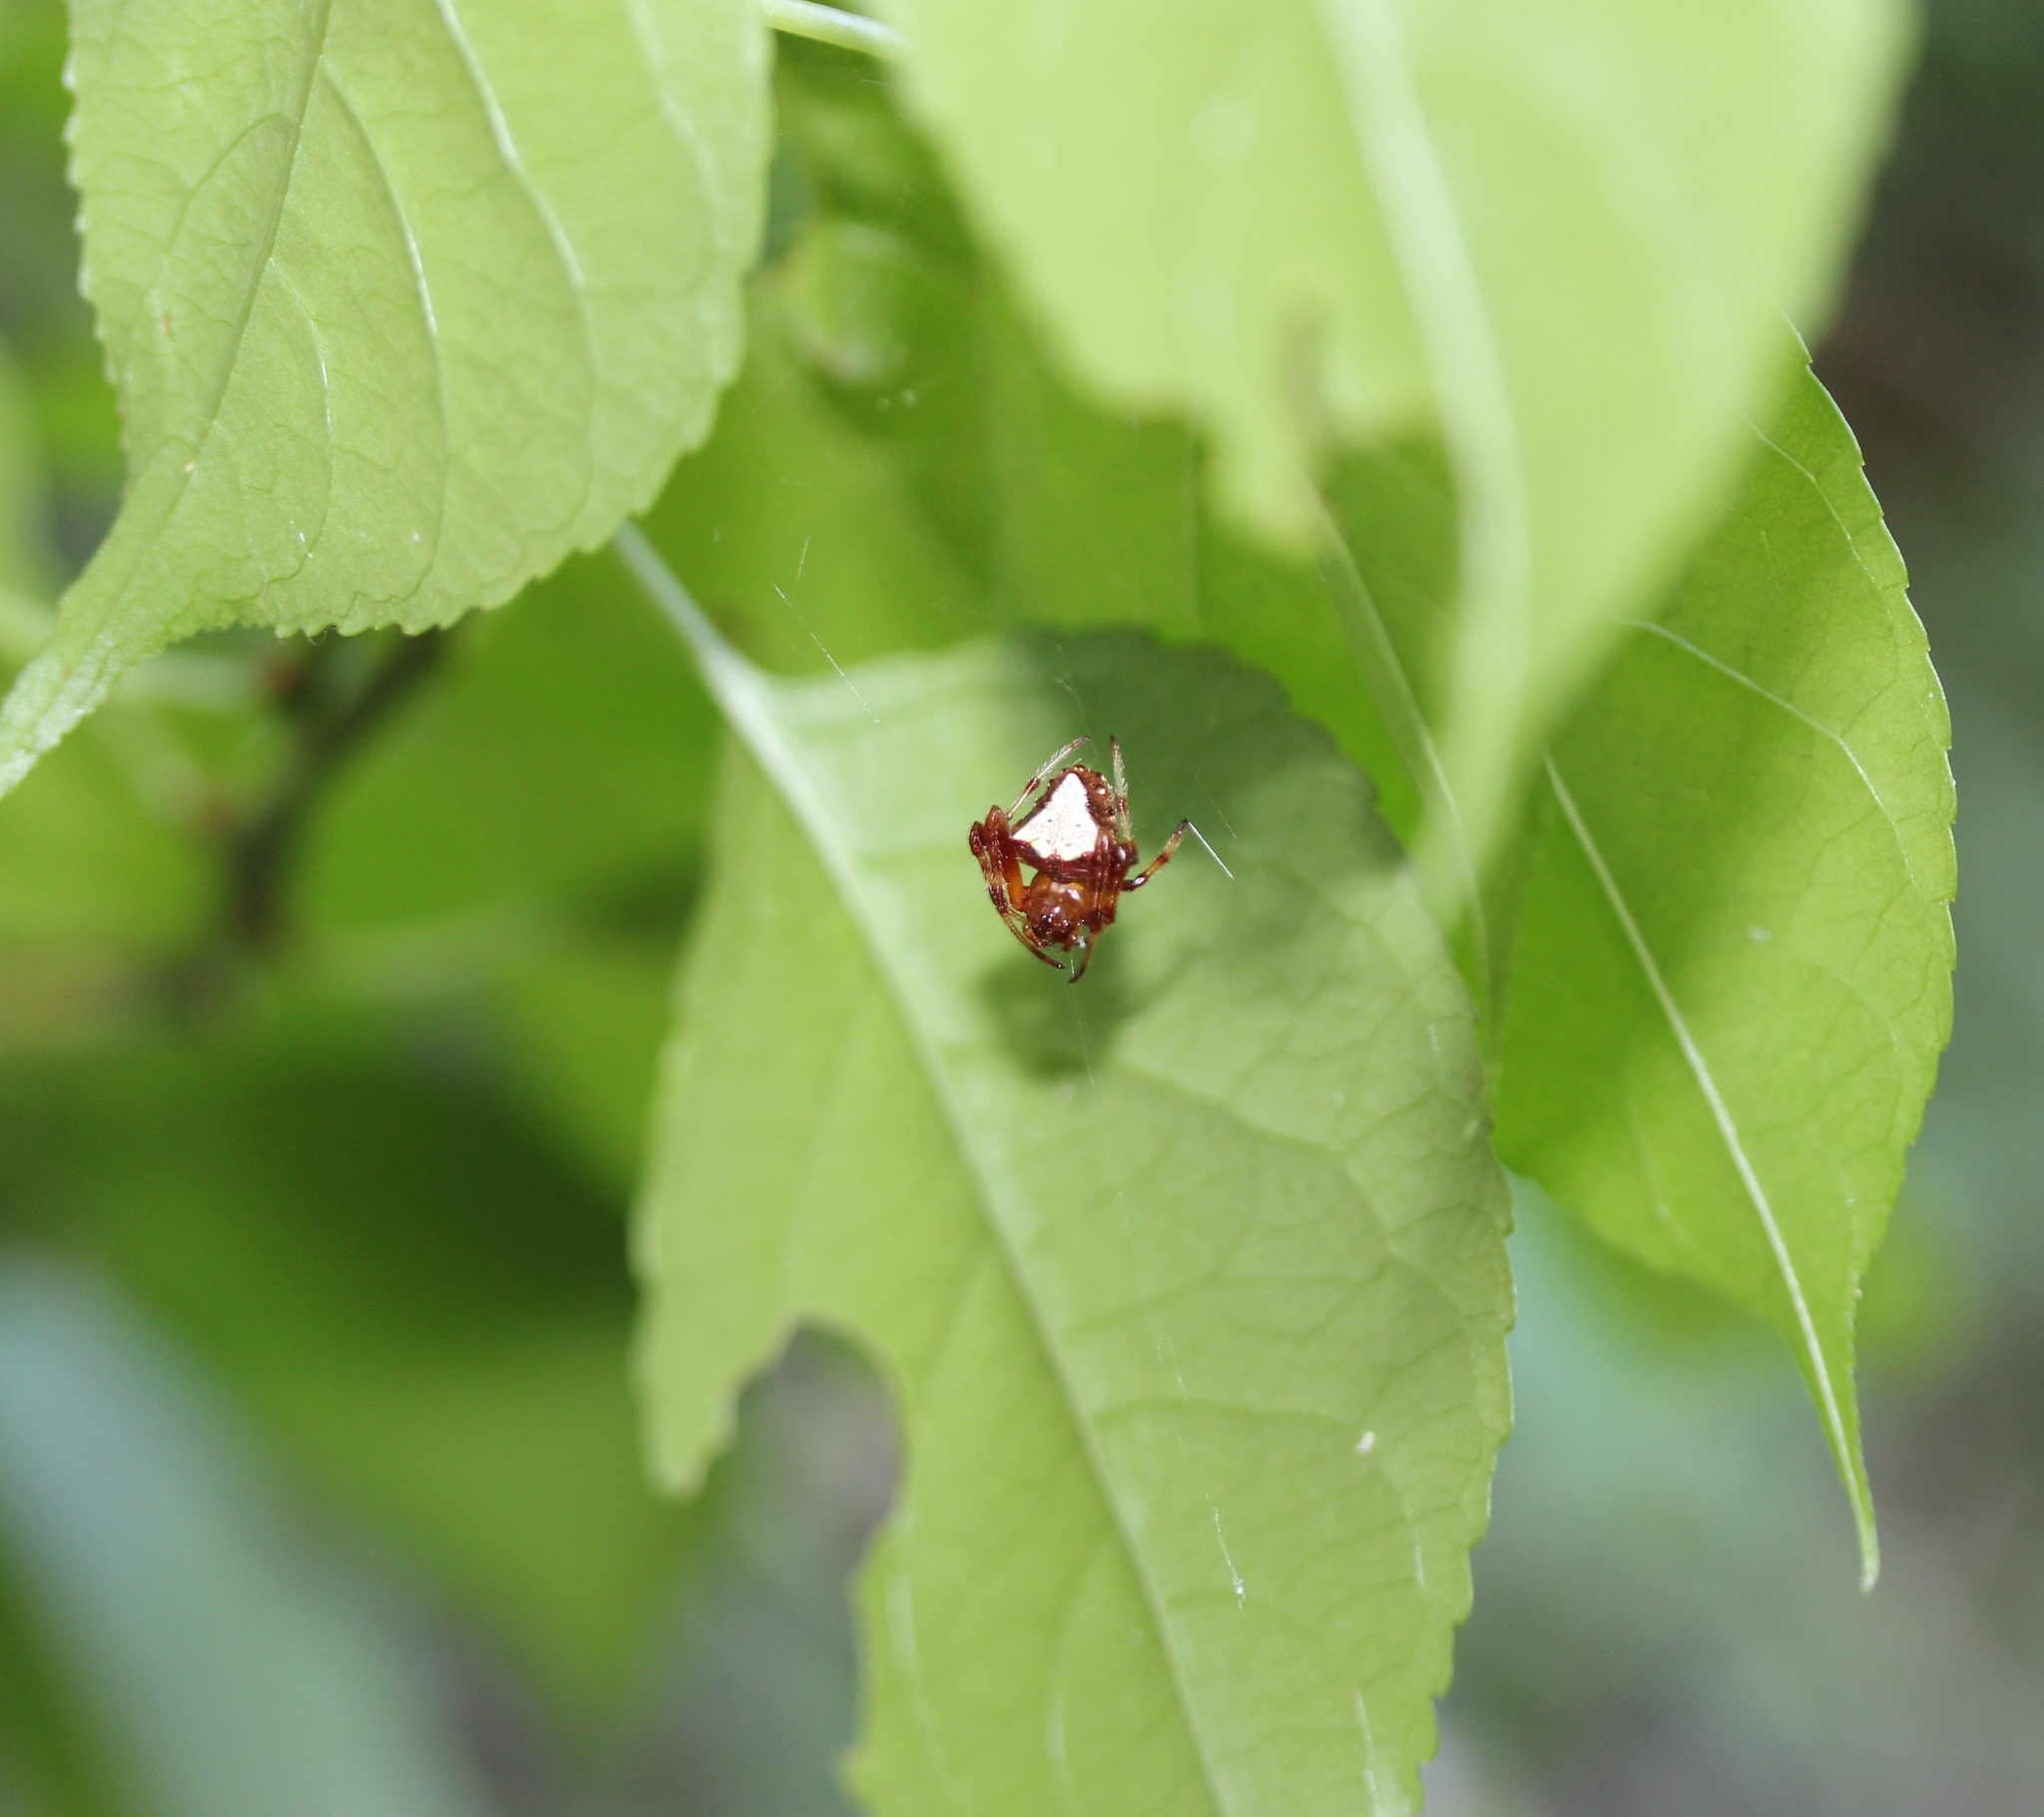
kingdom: Animalia
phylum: Arthropoda
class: Arachnida
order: Araneae
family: Araneidae
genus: Verrucosa
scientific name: Verrucosa arenata
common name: Orb weavers
